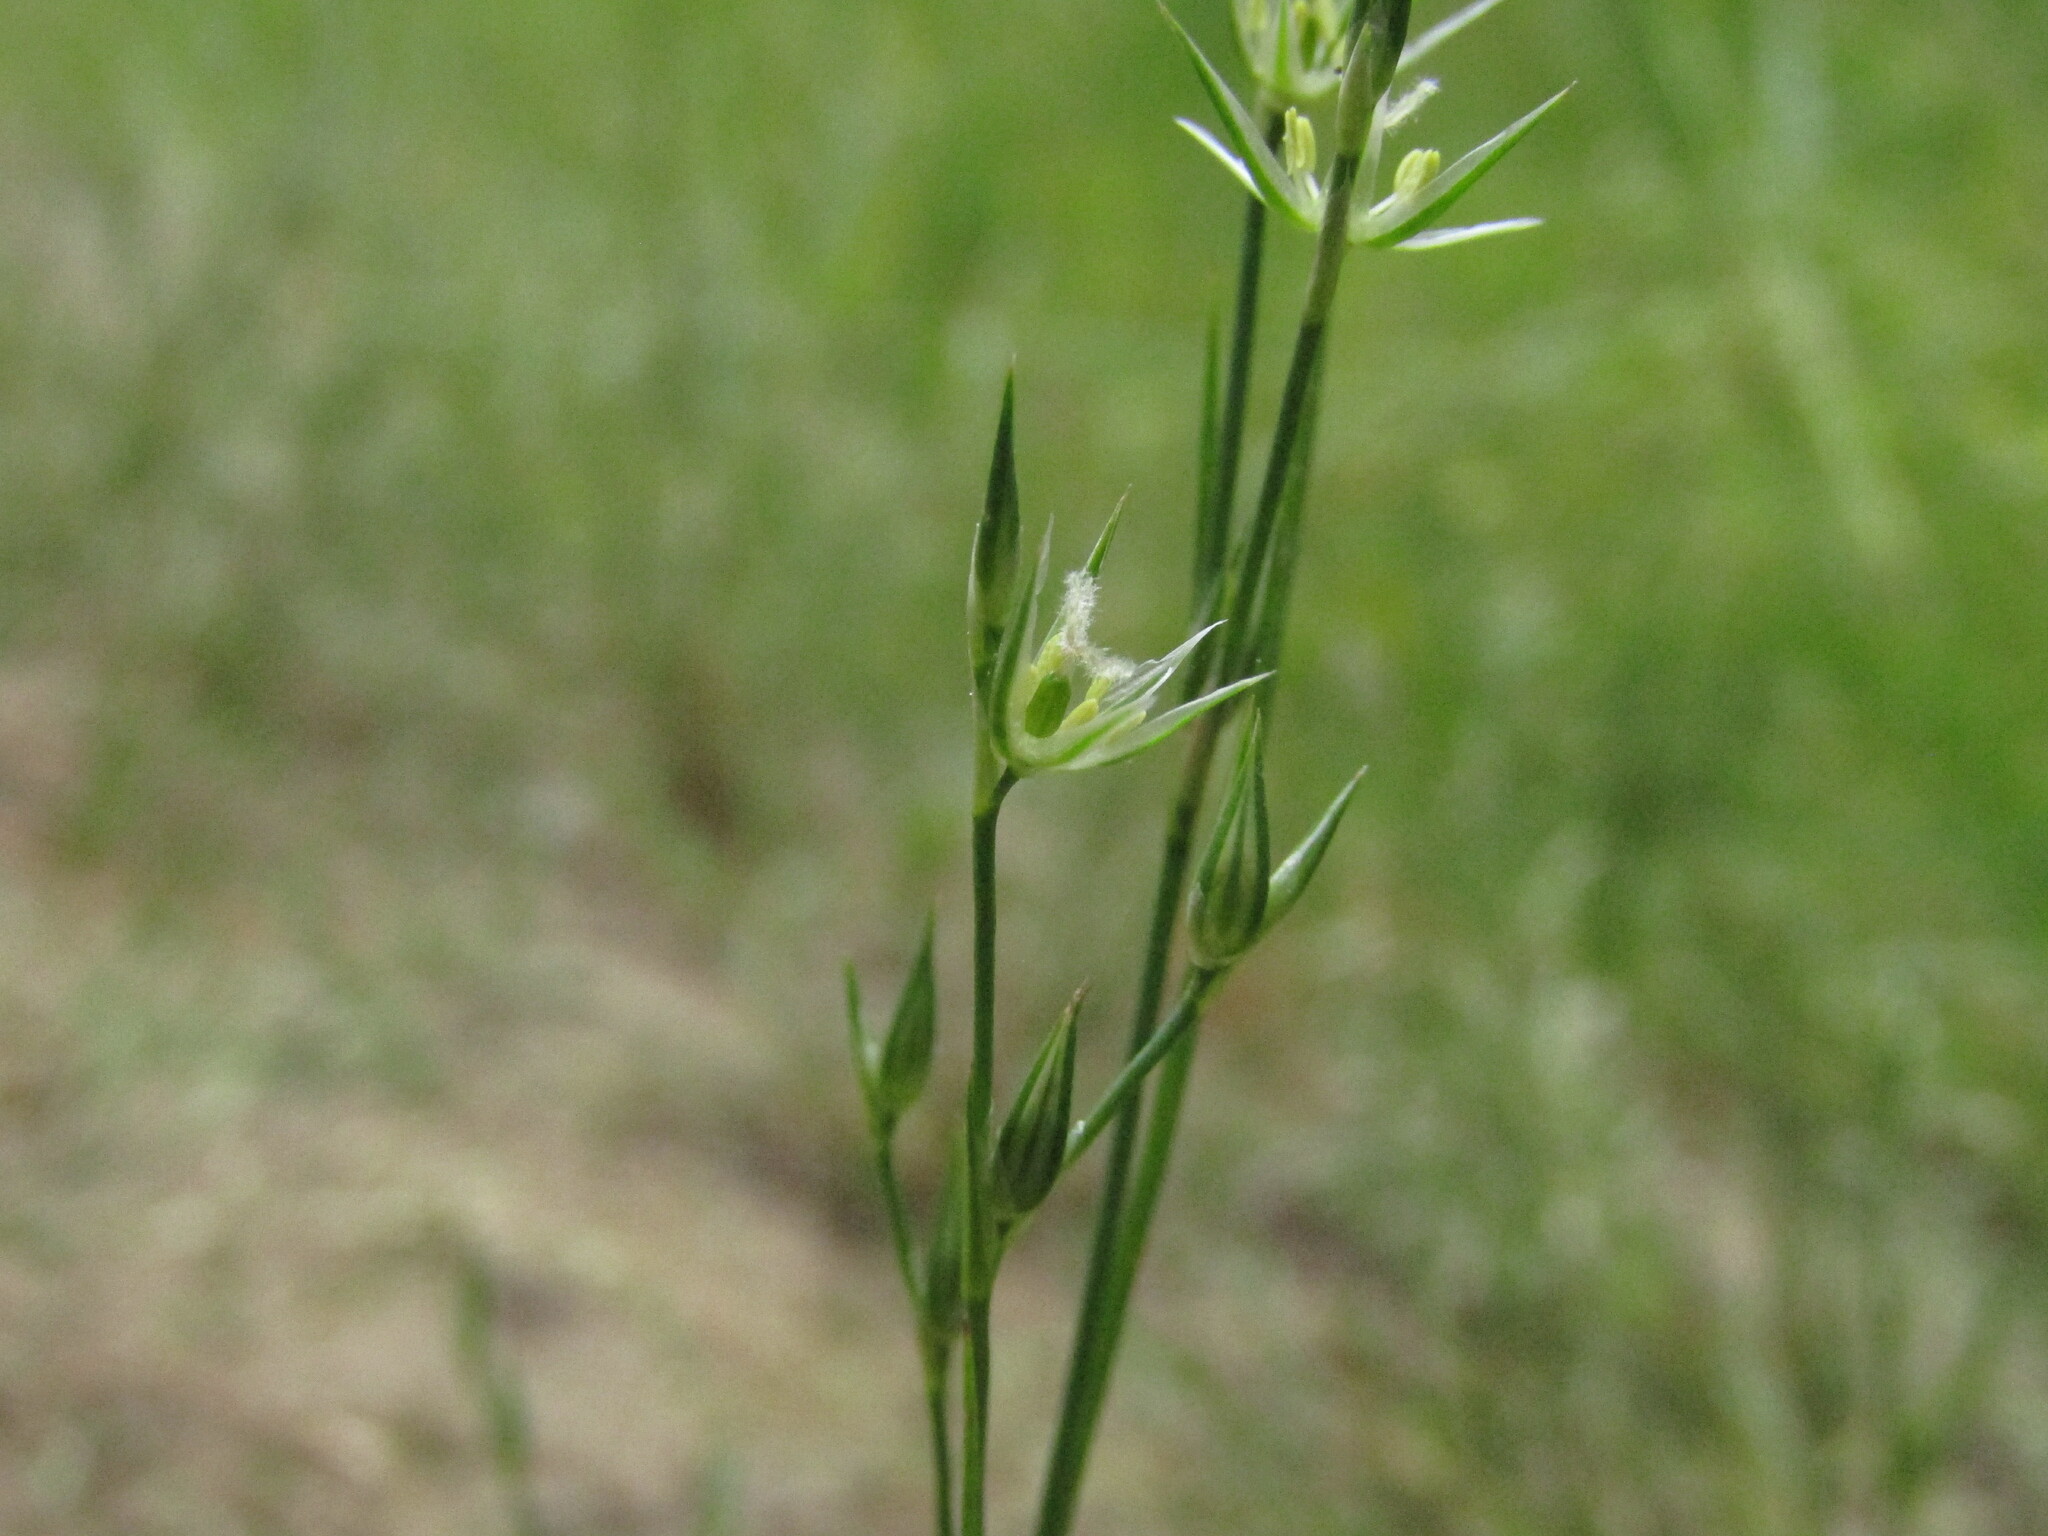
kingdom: Plantae
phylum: Tracheophyta
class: Liliopsida
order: Poales
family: Juncaceae
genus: Juncus
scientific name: Juncus bufonius
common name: Toad rush
